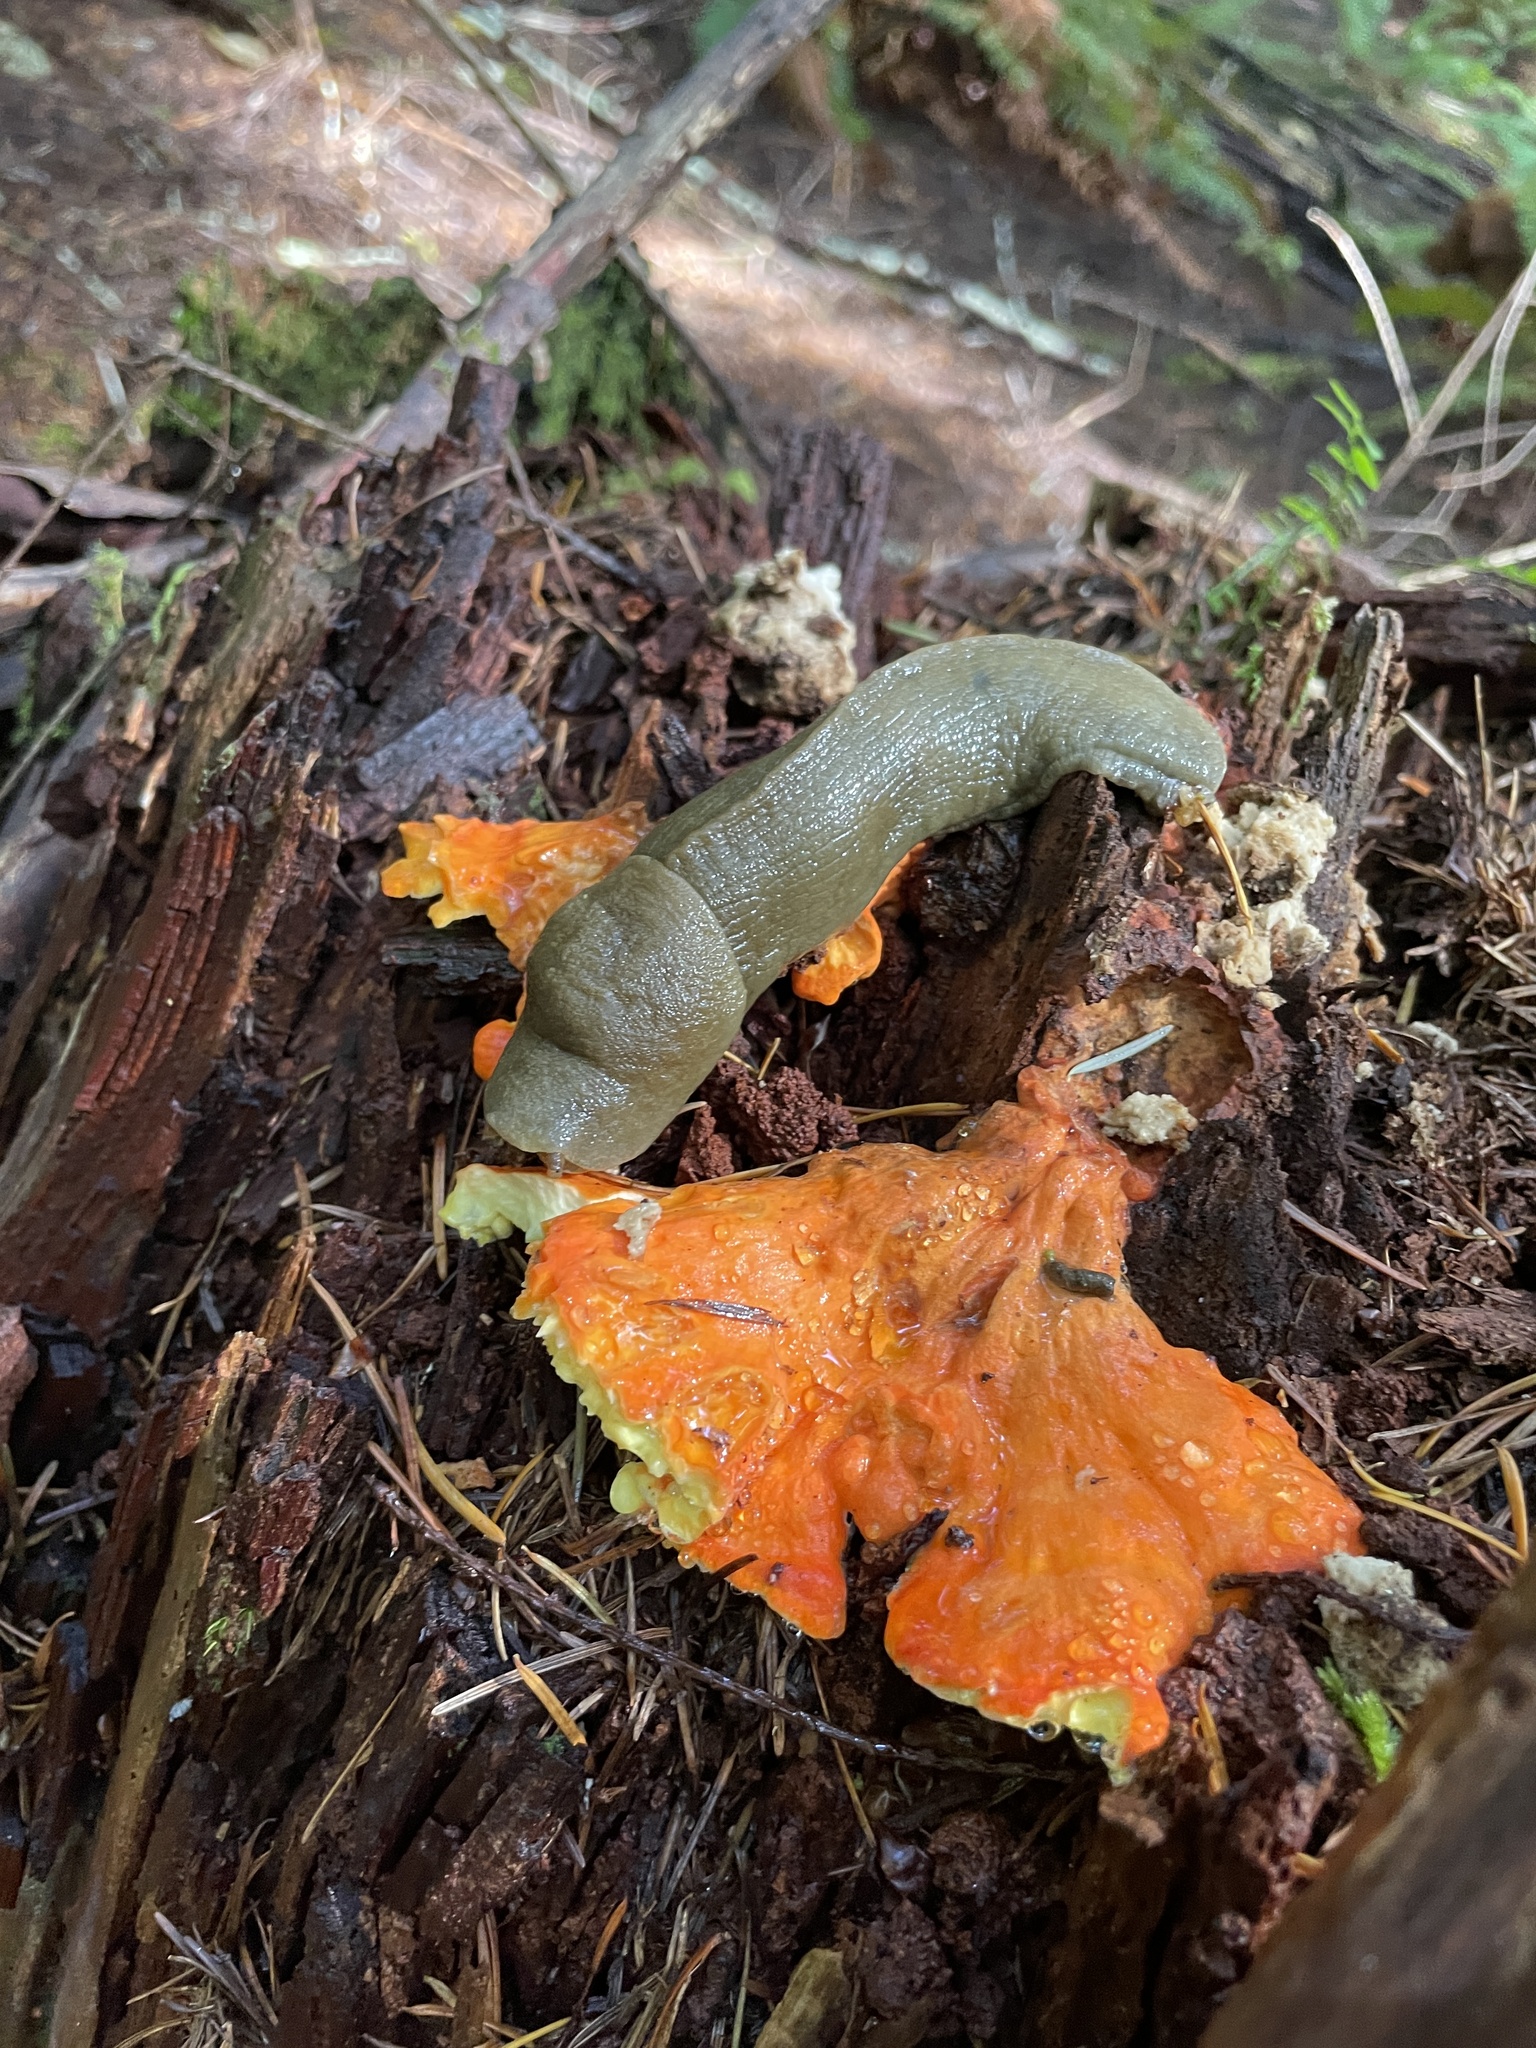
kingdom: Animalia
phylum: Mollusca
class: Gastropoda
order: Stylommatophora
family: Ariolimacidae
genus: Ariolimax
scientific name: Ariolimax columbianus
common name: Pacific banana slug
